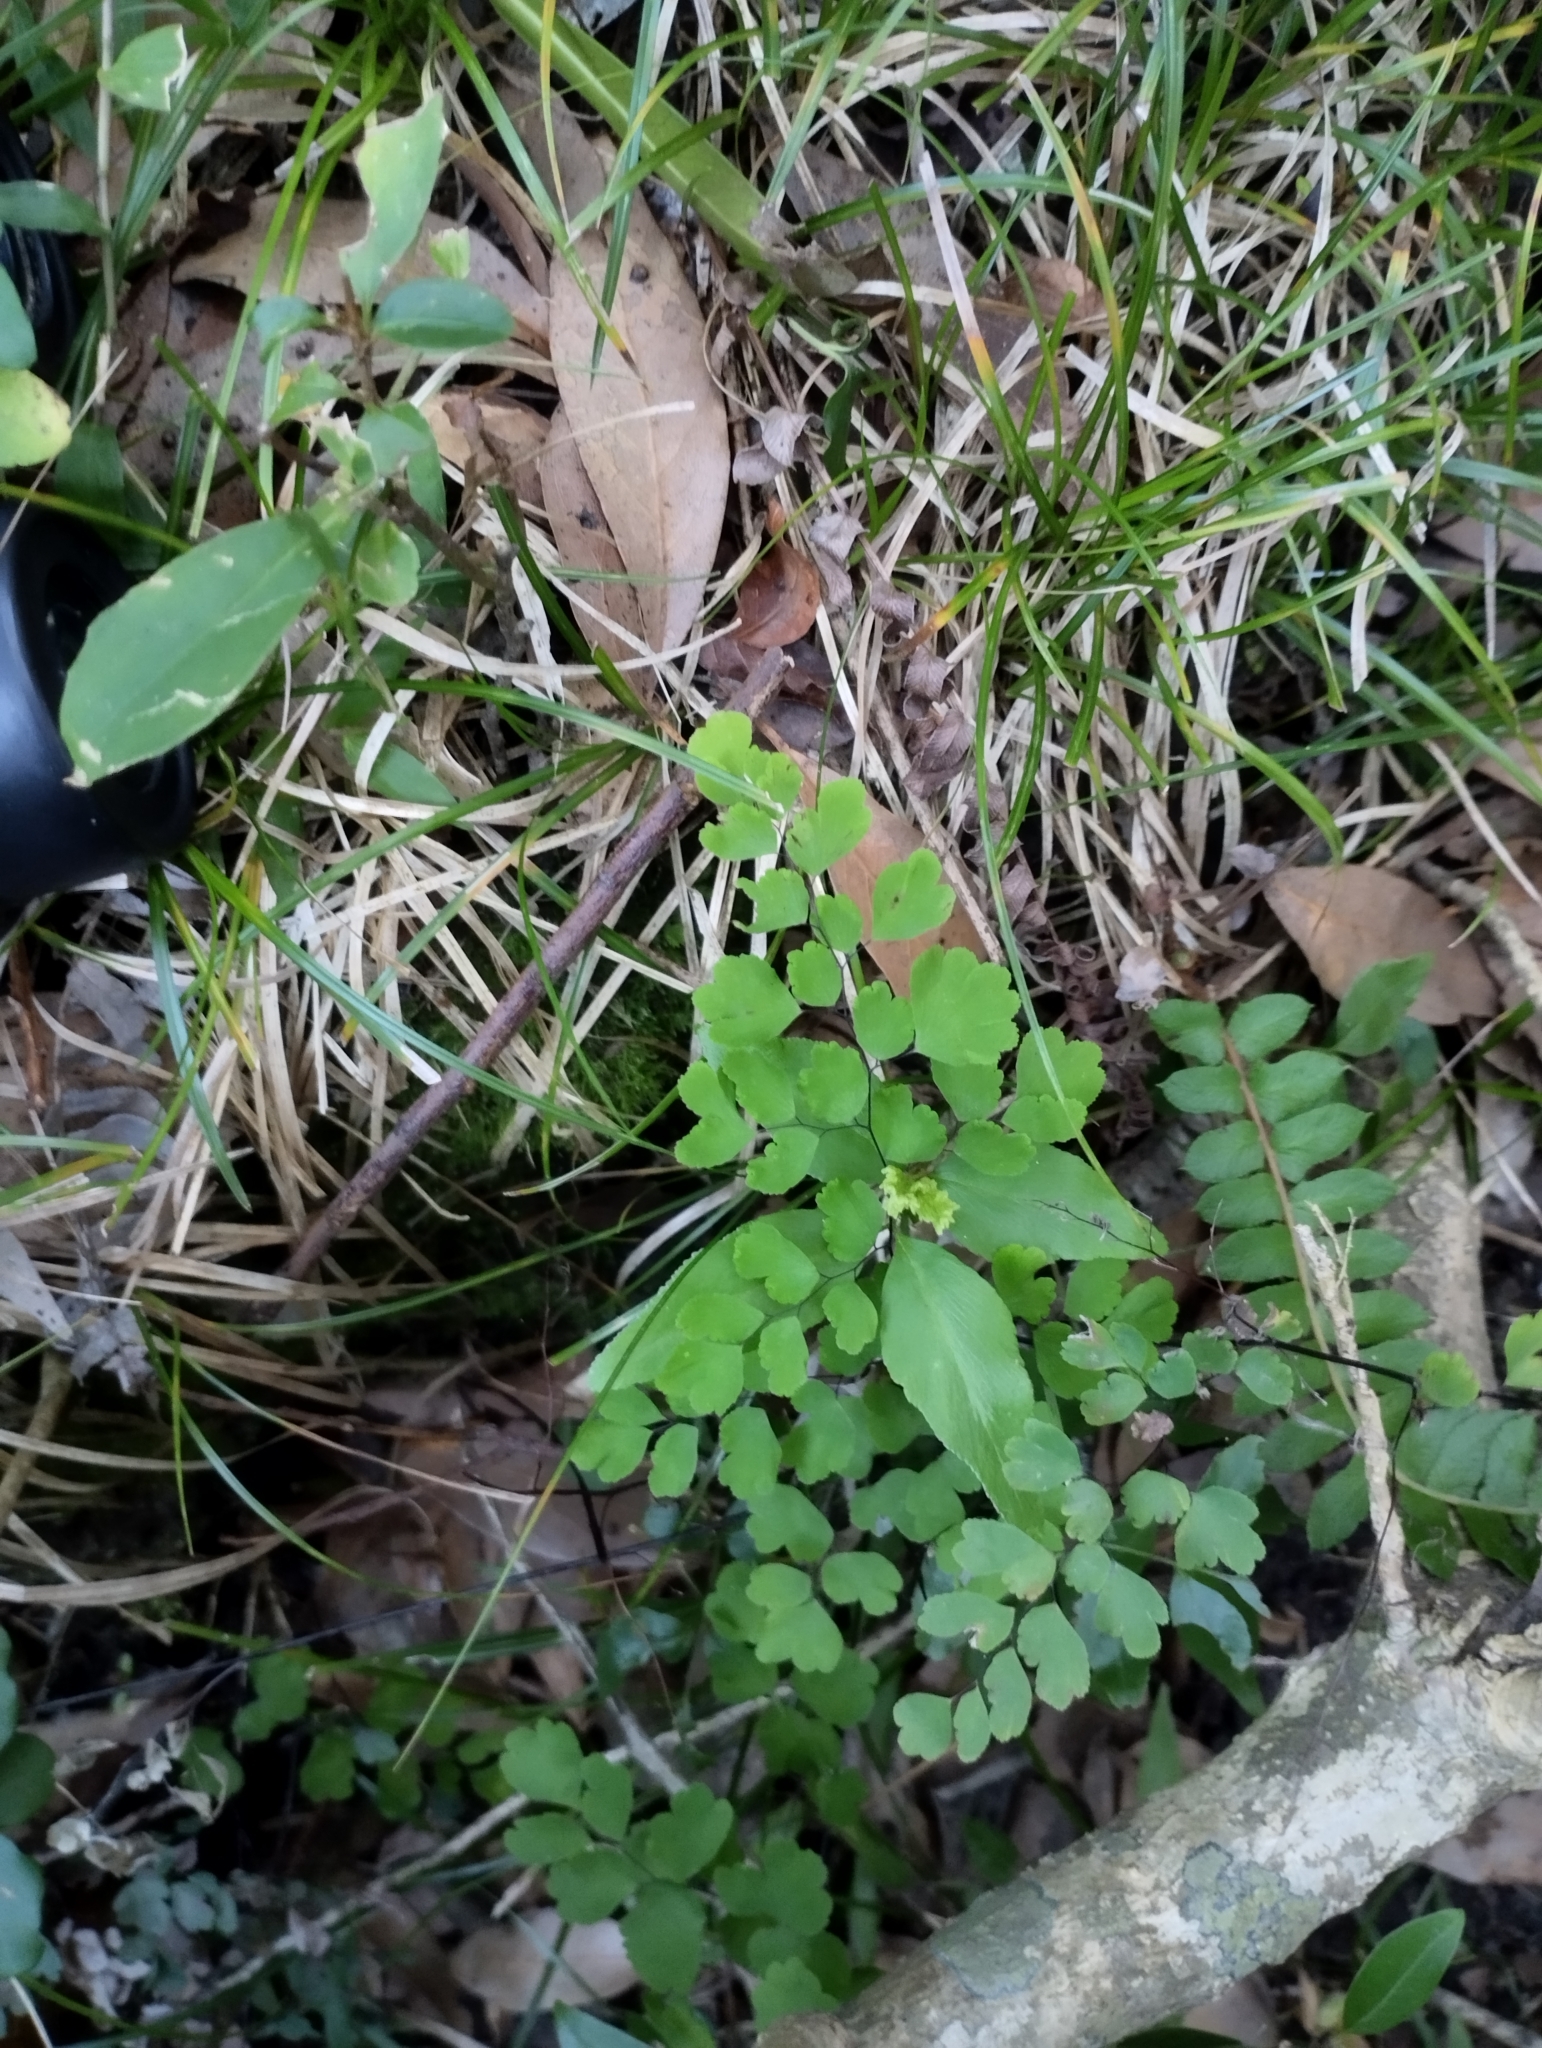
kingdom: Plantae
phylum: Tracheophyta
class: Polypodiopsida
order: Polypodiales
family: Pteridaceae
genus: Adiantum
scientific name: Adiantum raddianum
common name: Delta maidenhair fern
